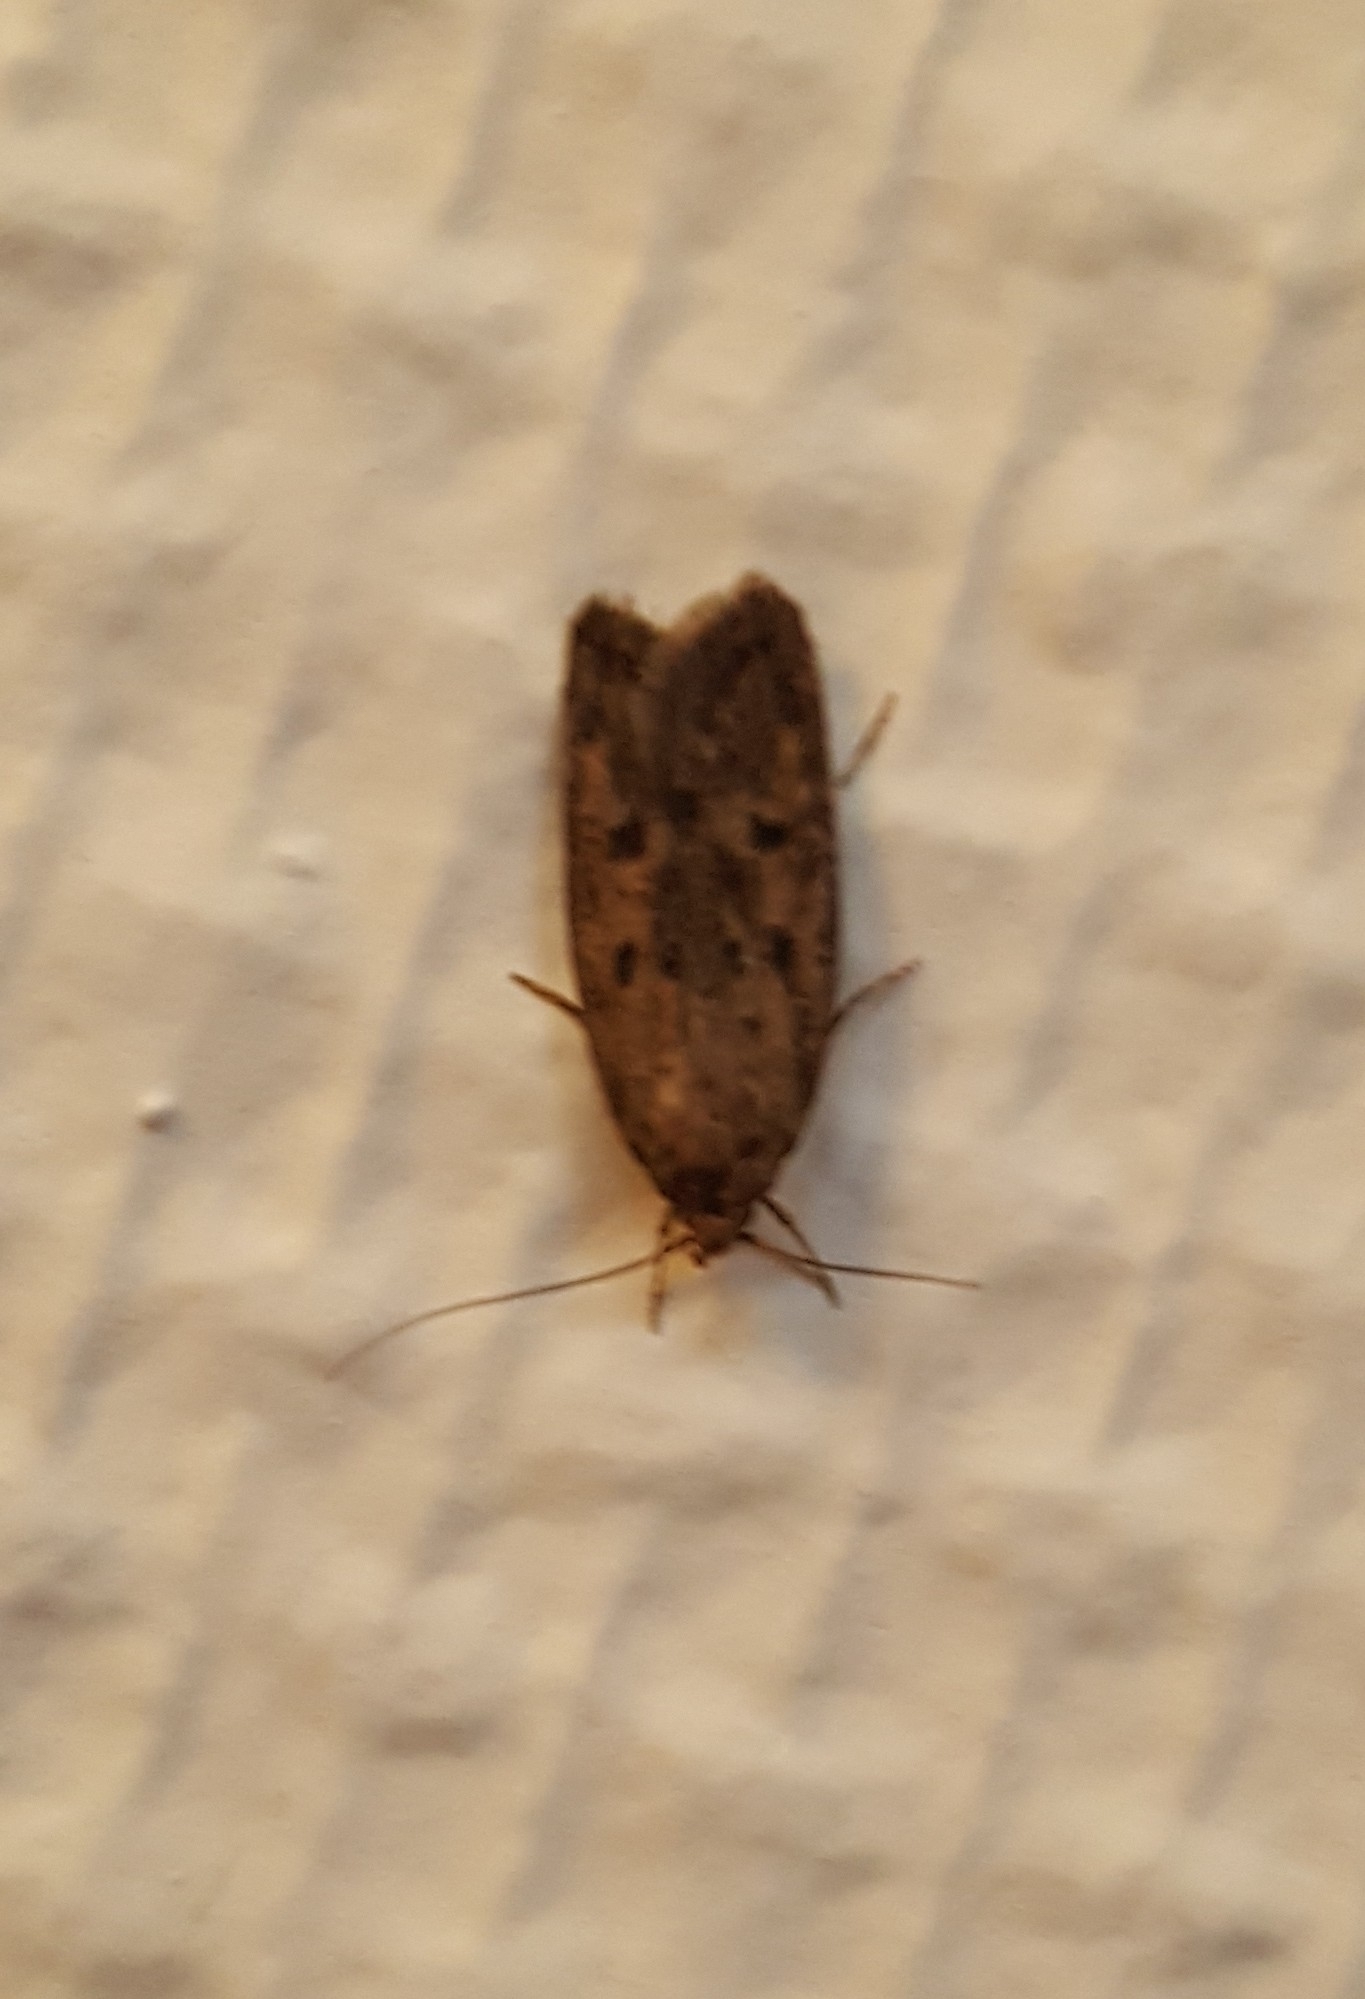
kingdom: Animalia
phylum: Arthropoda
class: Insecta
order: Lepidoptera
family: Oecophoridae
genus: Hofmannophila
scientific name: Hofmannophila pseudospretella
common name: Brown house moth
